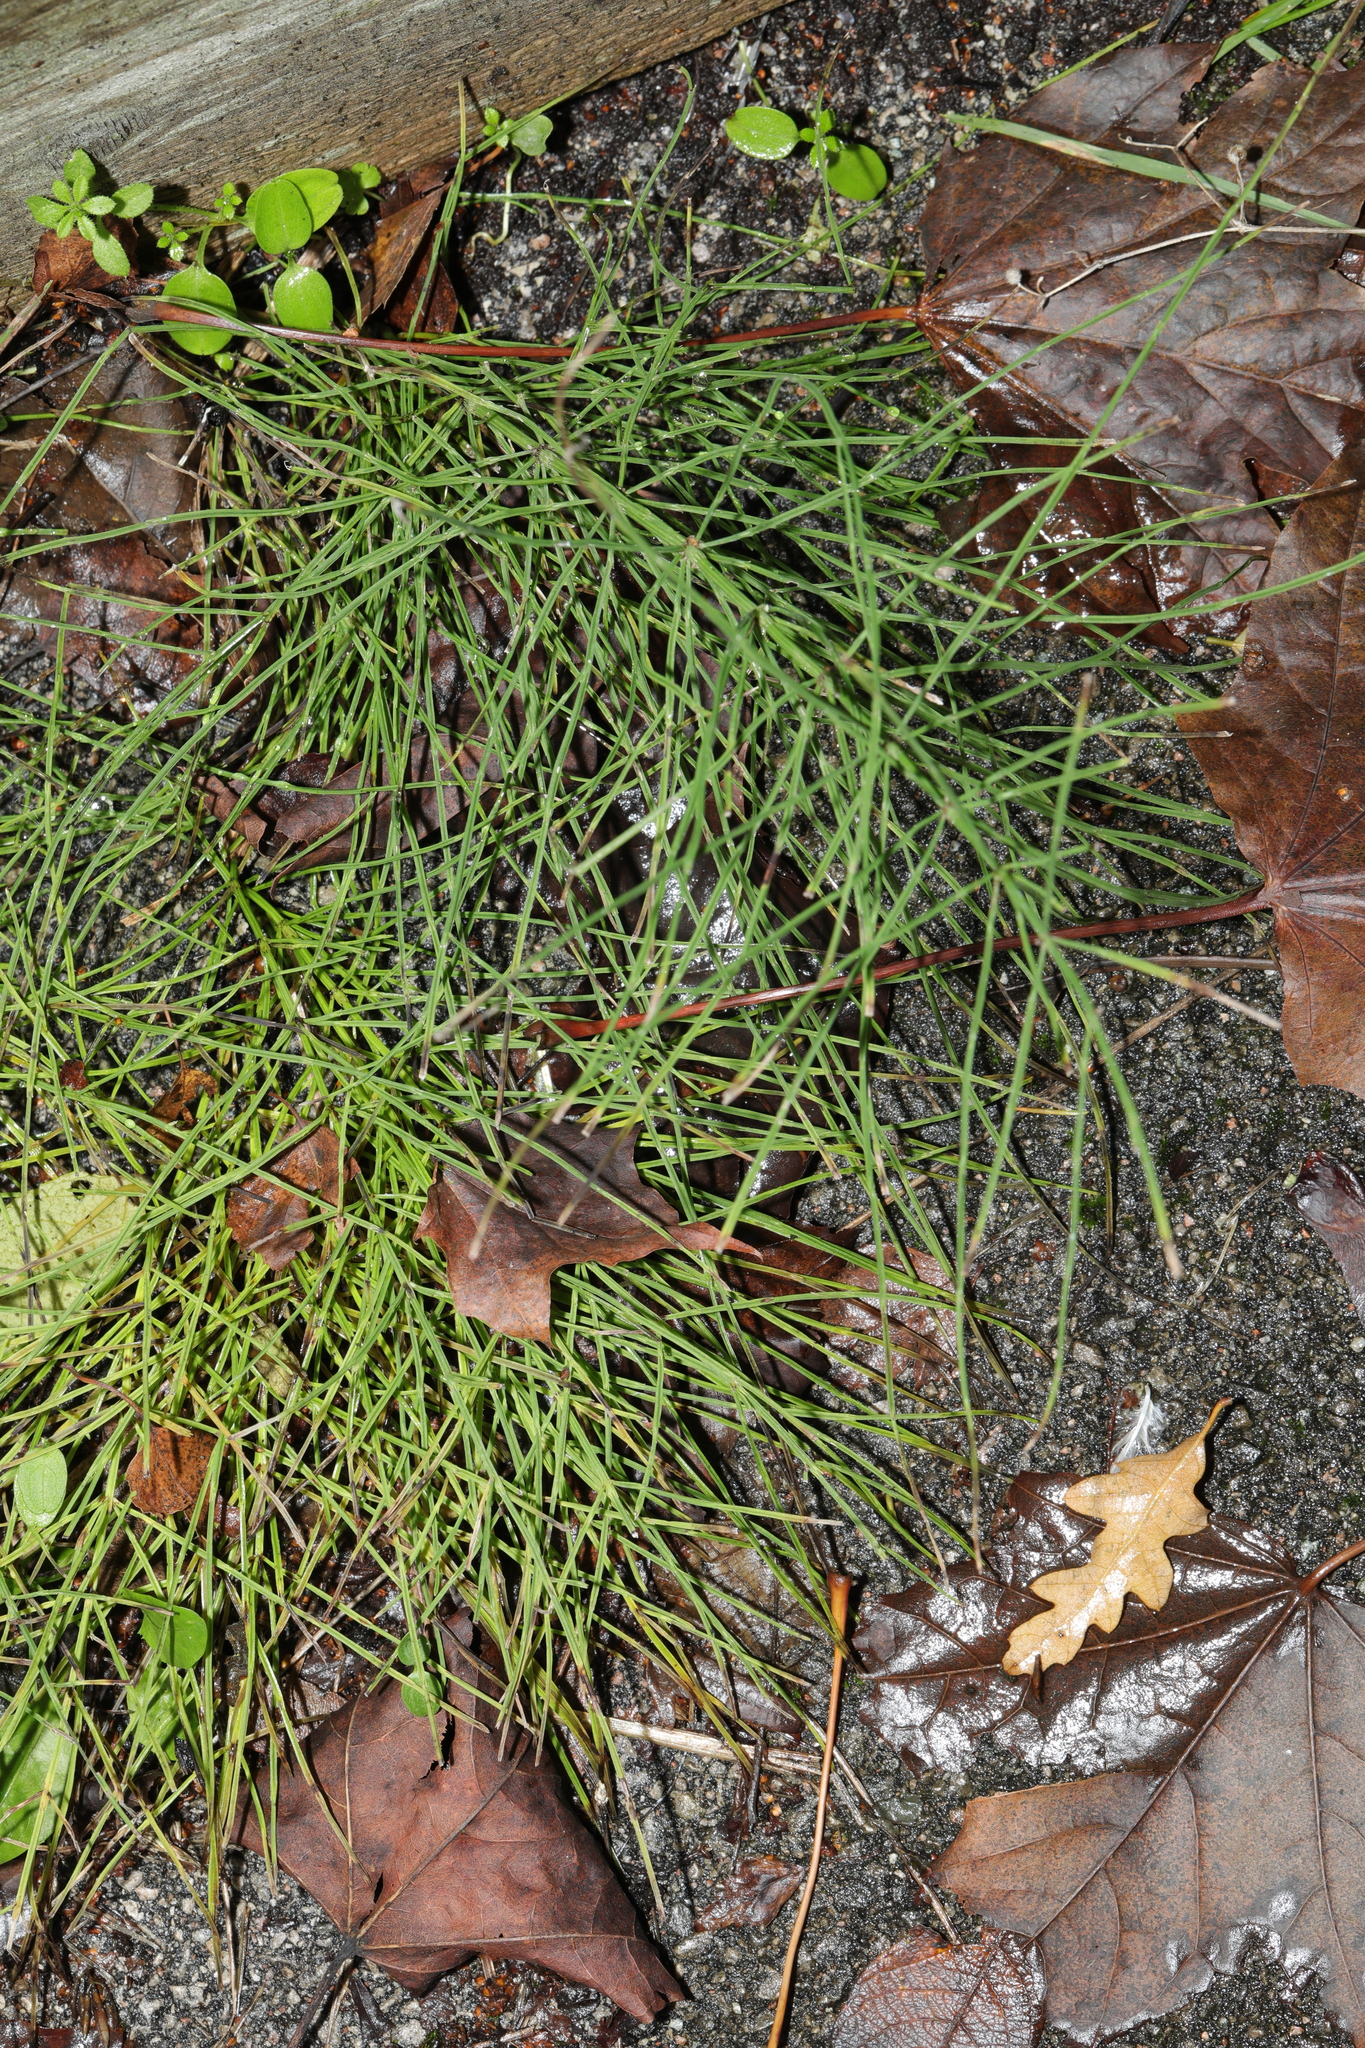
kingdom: Plantae
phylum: Tracheophyta
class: Polypodiopsida
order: Equisetales
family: Equisetaceae
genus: Equisetum
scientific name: Equisetum arvense
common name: Field horsetail
